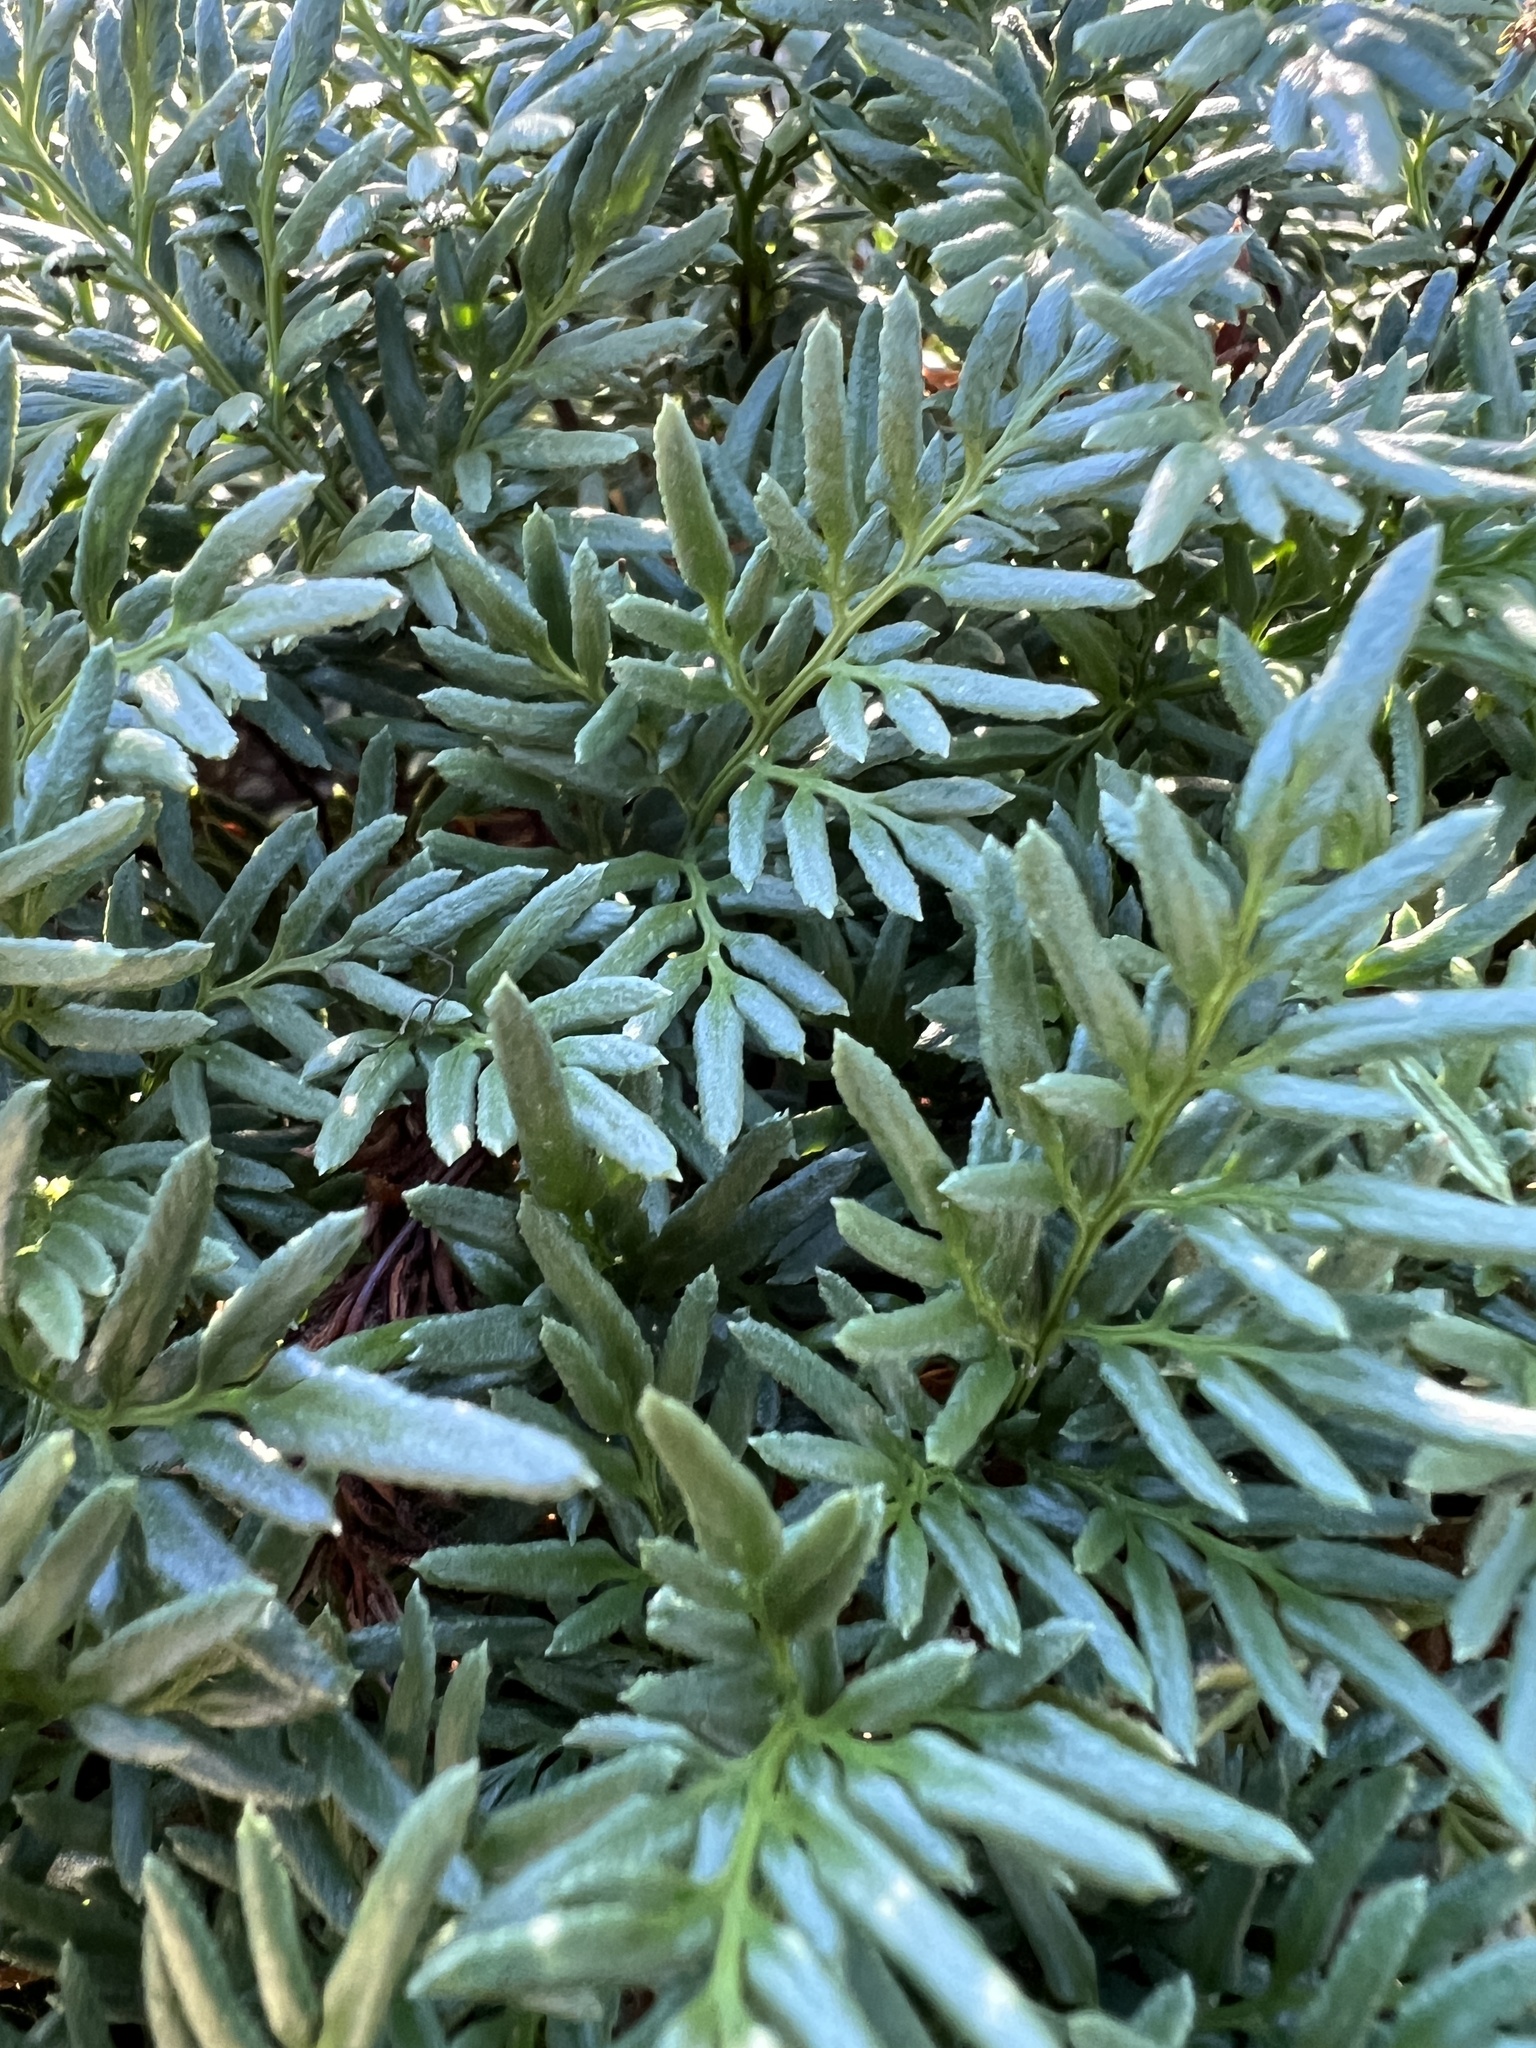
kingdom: Plantae
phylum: Tracheophyta
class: Polypodiopsida
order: Polypodiales
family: Pteridaceae
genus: Aspidotis
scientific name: Aspidotis densa
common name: Indian's dream
